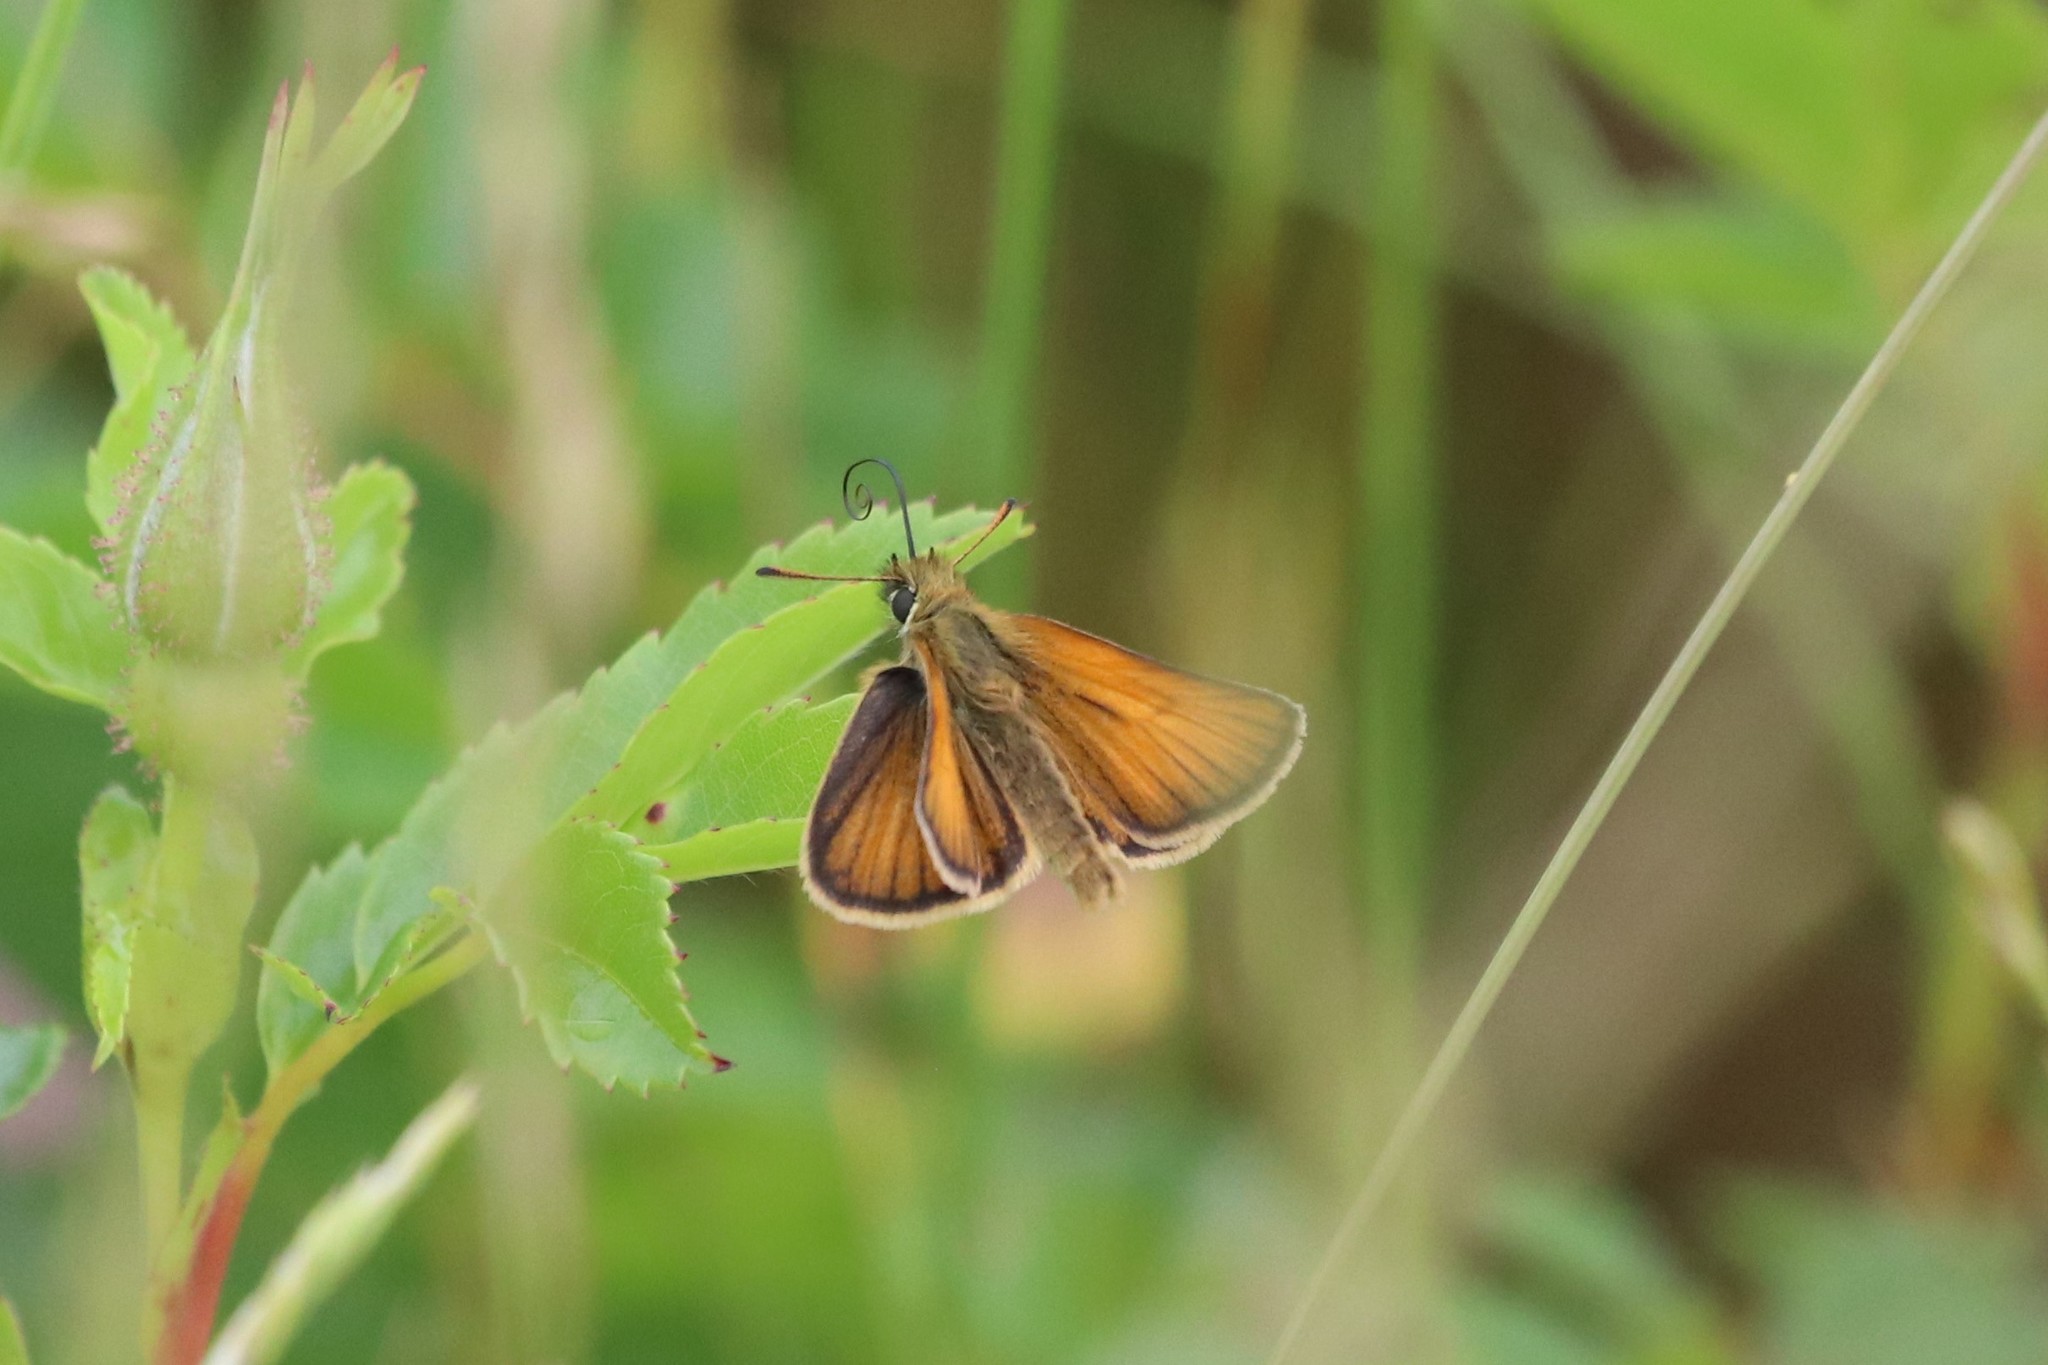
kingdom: Animalia
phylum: Arthropoda
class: Insecta
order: Lepidoptera
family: Hesperiidae
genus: Thymelicus
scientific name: Thymelicus lineola
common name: Essex skipper
